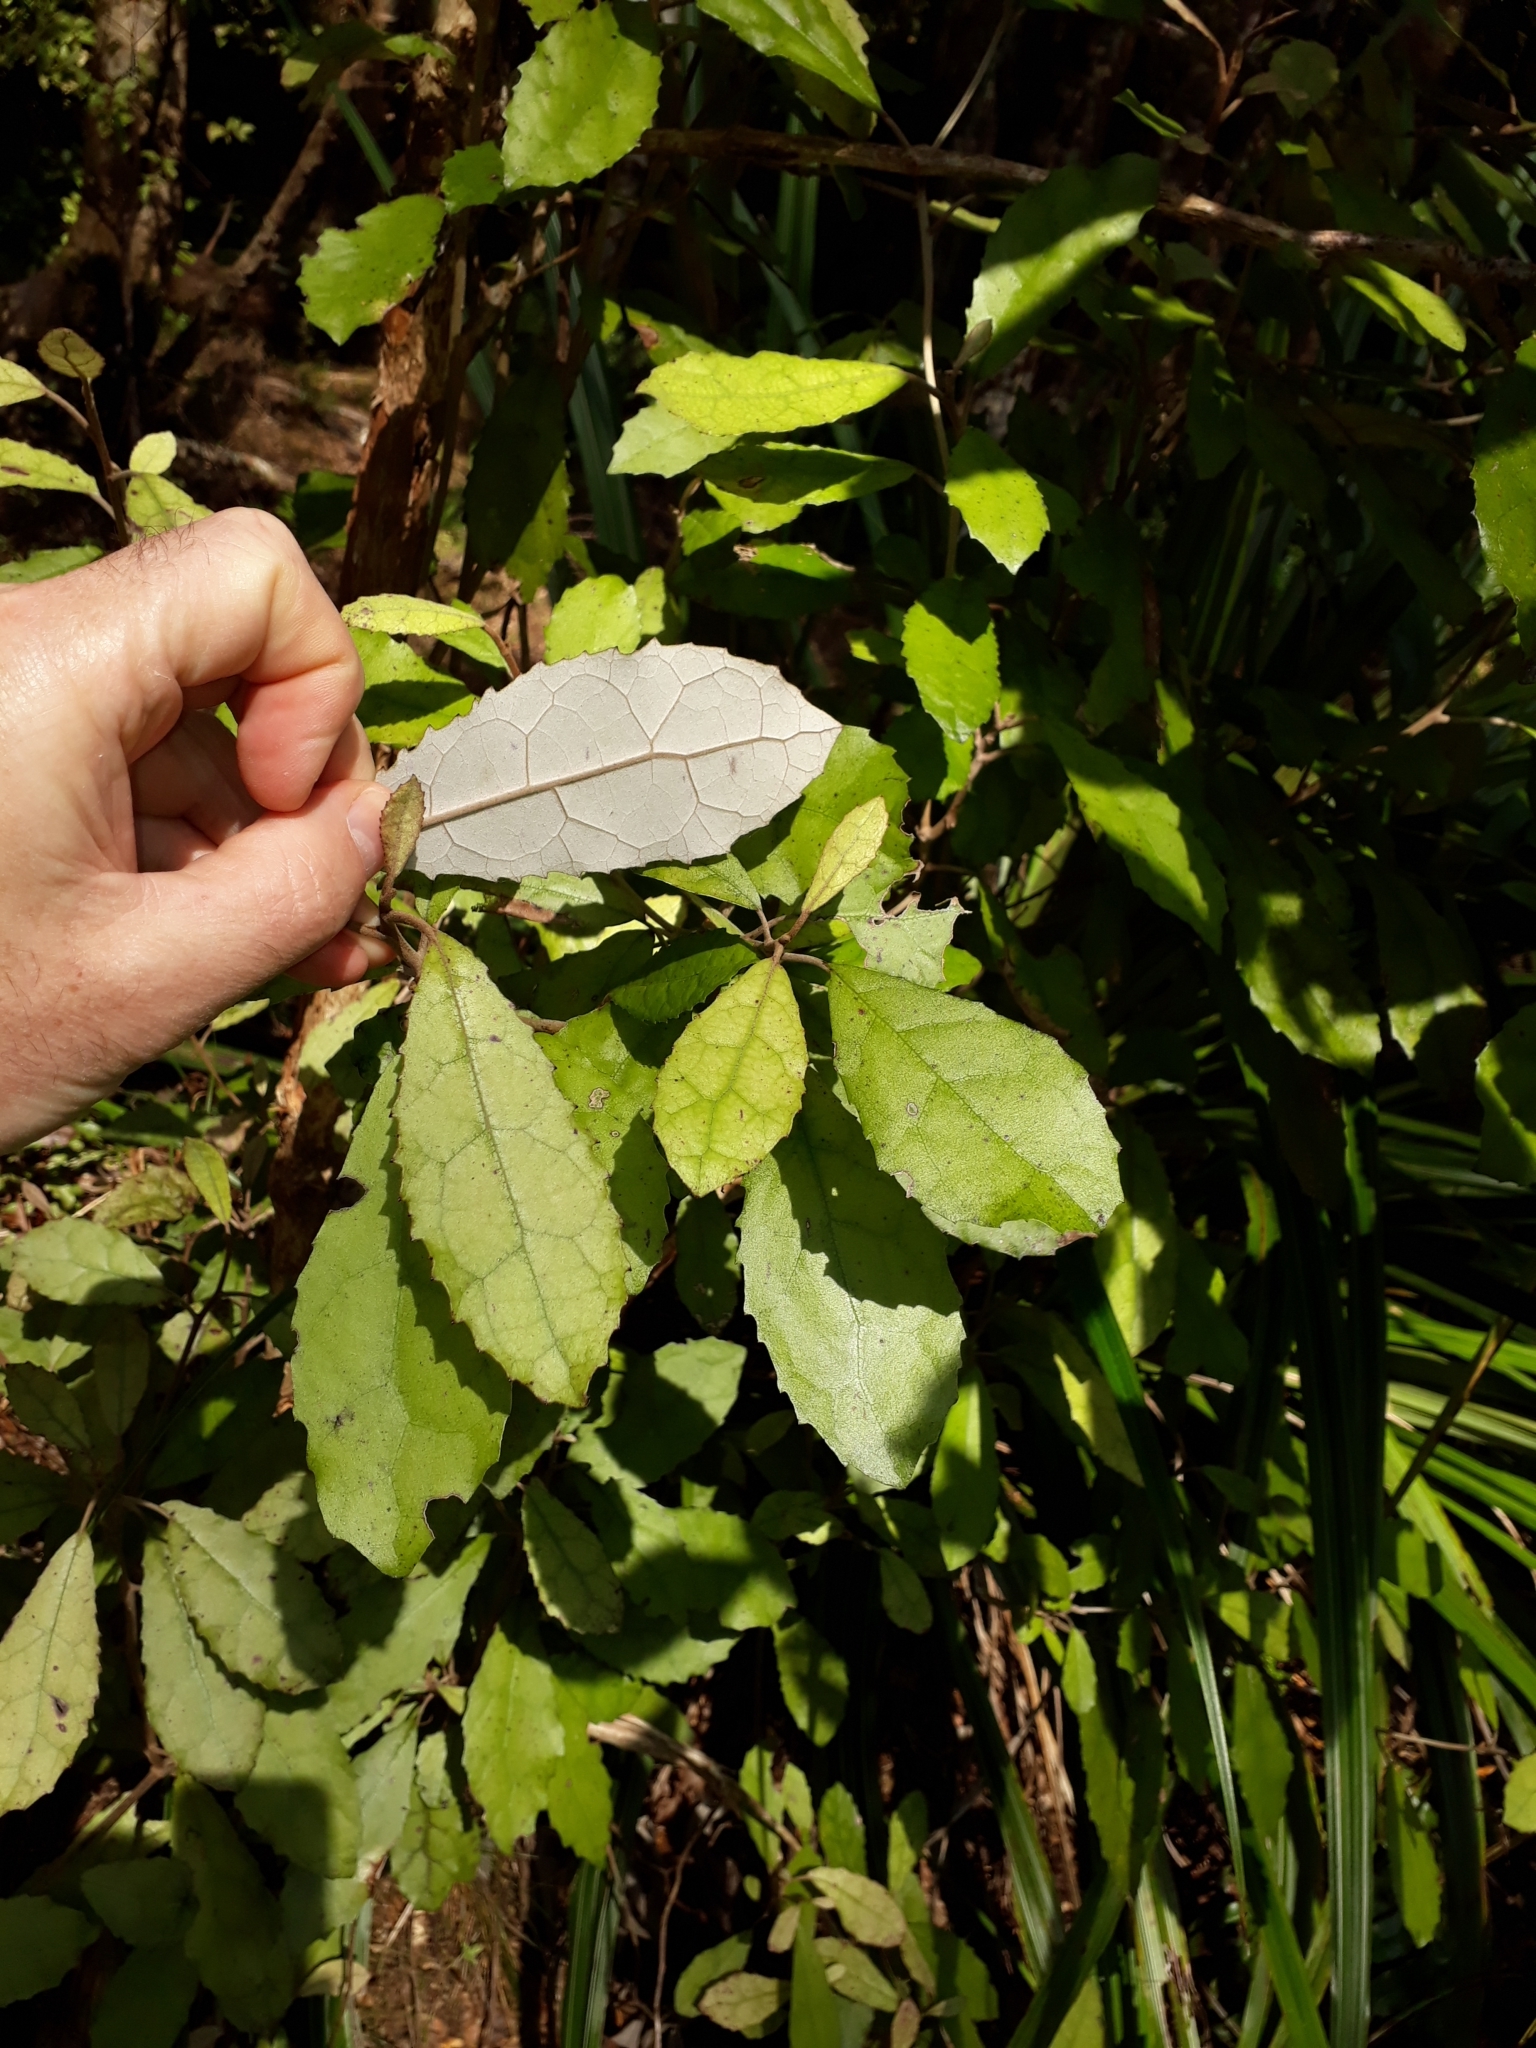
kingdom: Plantae
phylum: Tracheophyta
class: Magnoliopsida
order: Asterales
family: Asteraceae
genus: Olearia
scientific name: Olearia rani
